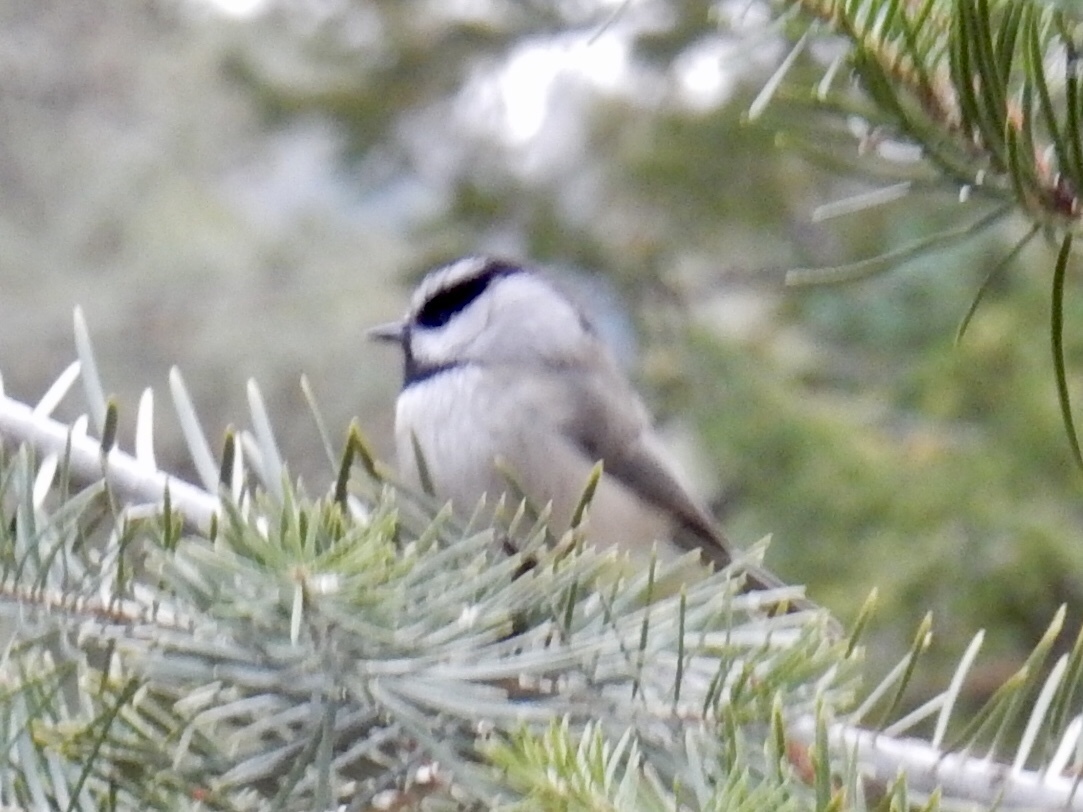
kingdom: Animalia
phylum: Chordata
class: Aves
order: Passeriformes
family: Paridae
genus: Poecile
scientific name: Poecile gambeli
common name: Mountain chickadee
